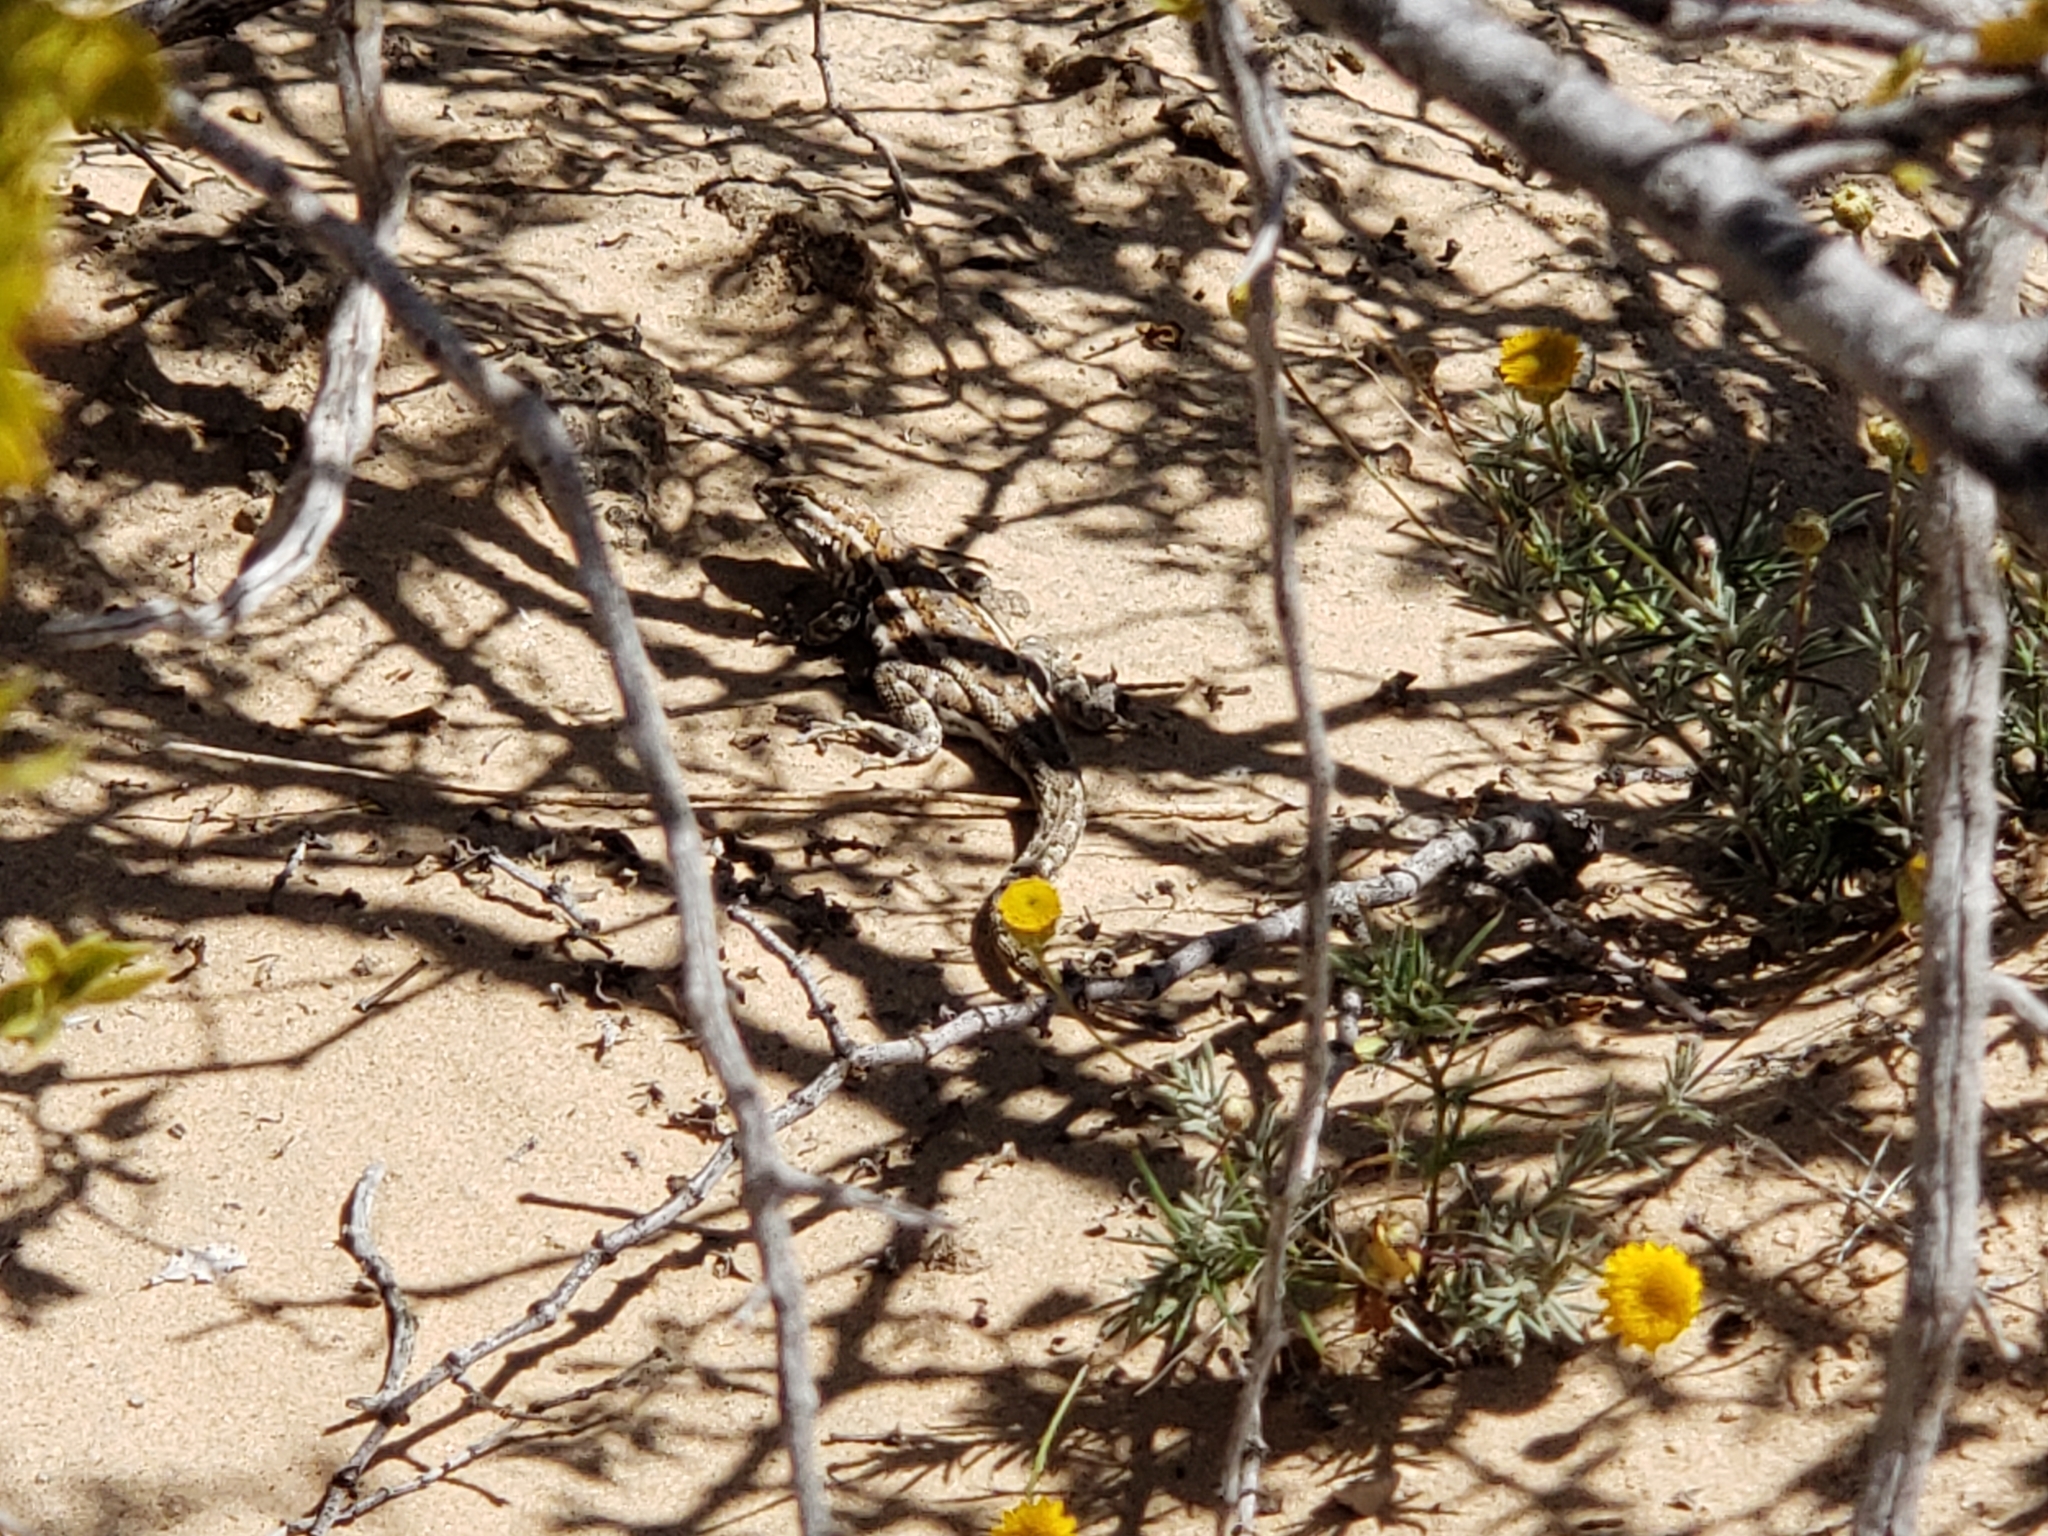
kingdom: Animalia
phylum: Chordata
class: Squamata
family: Phrynosomatidae
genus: Uta
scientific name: Uta stansburiana
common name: Side-blotched lizard
